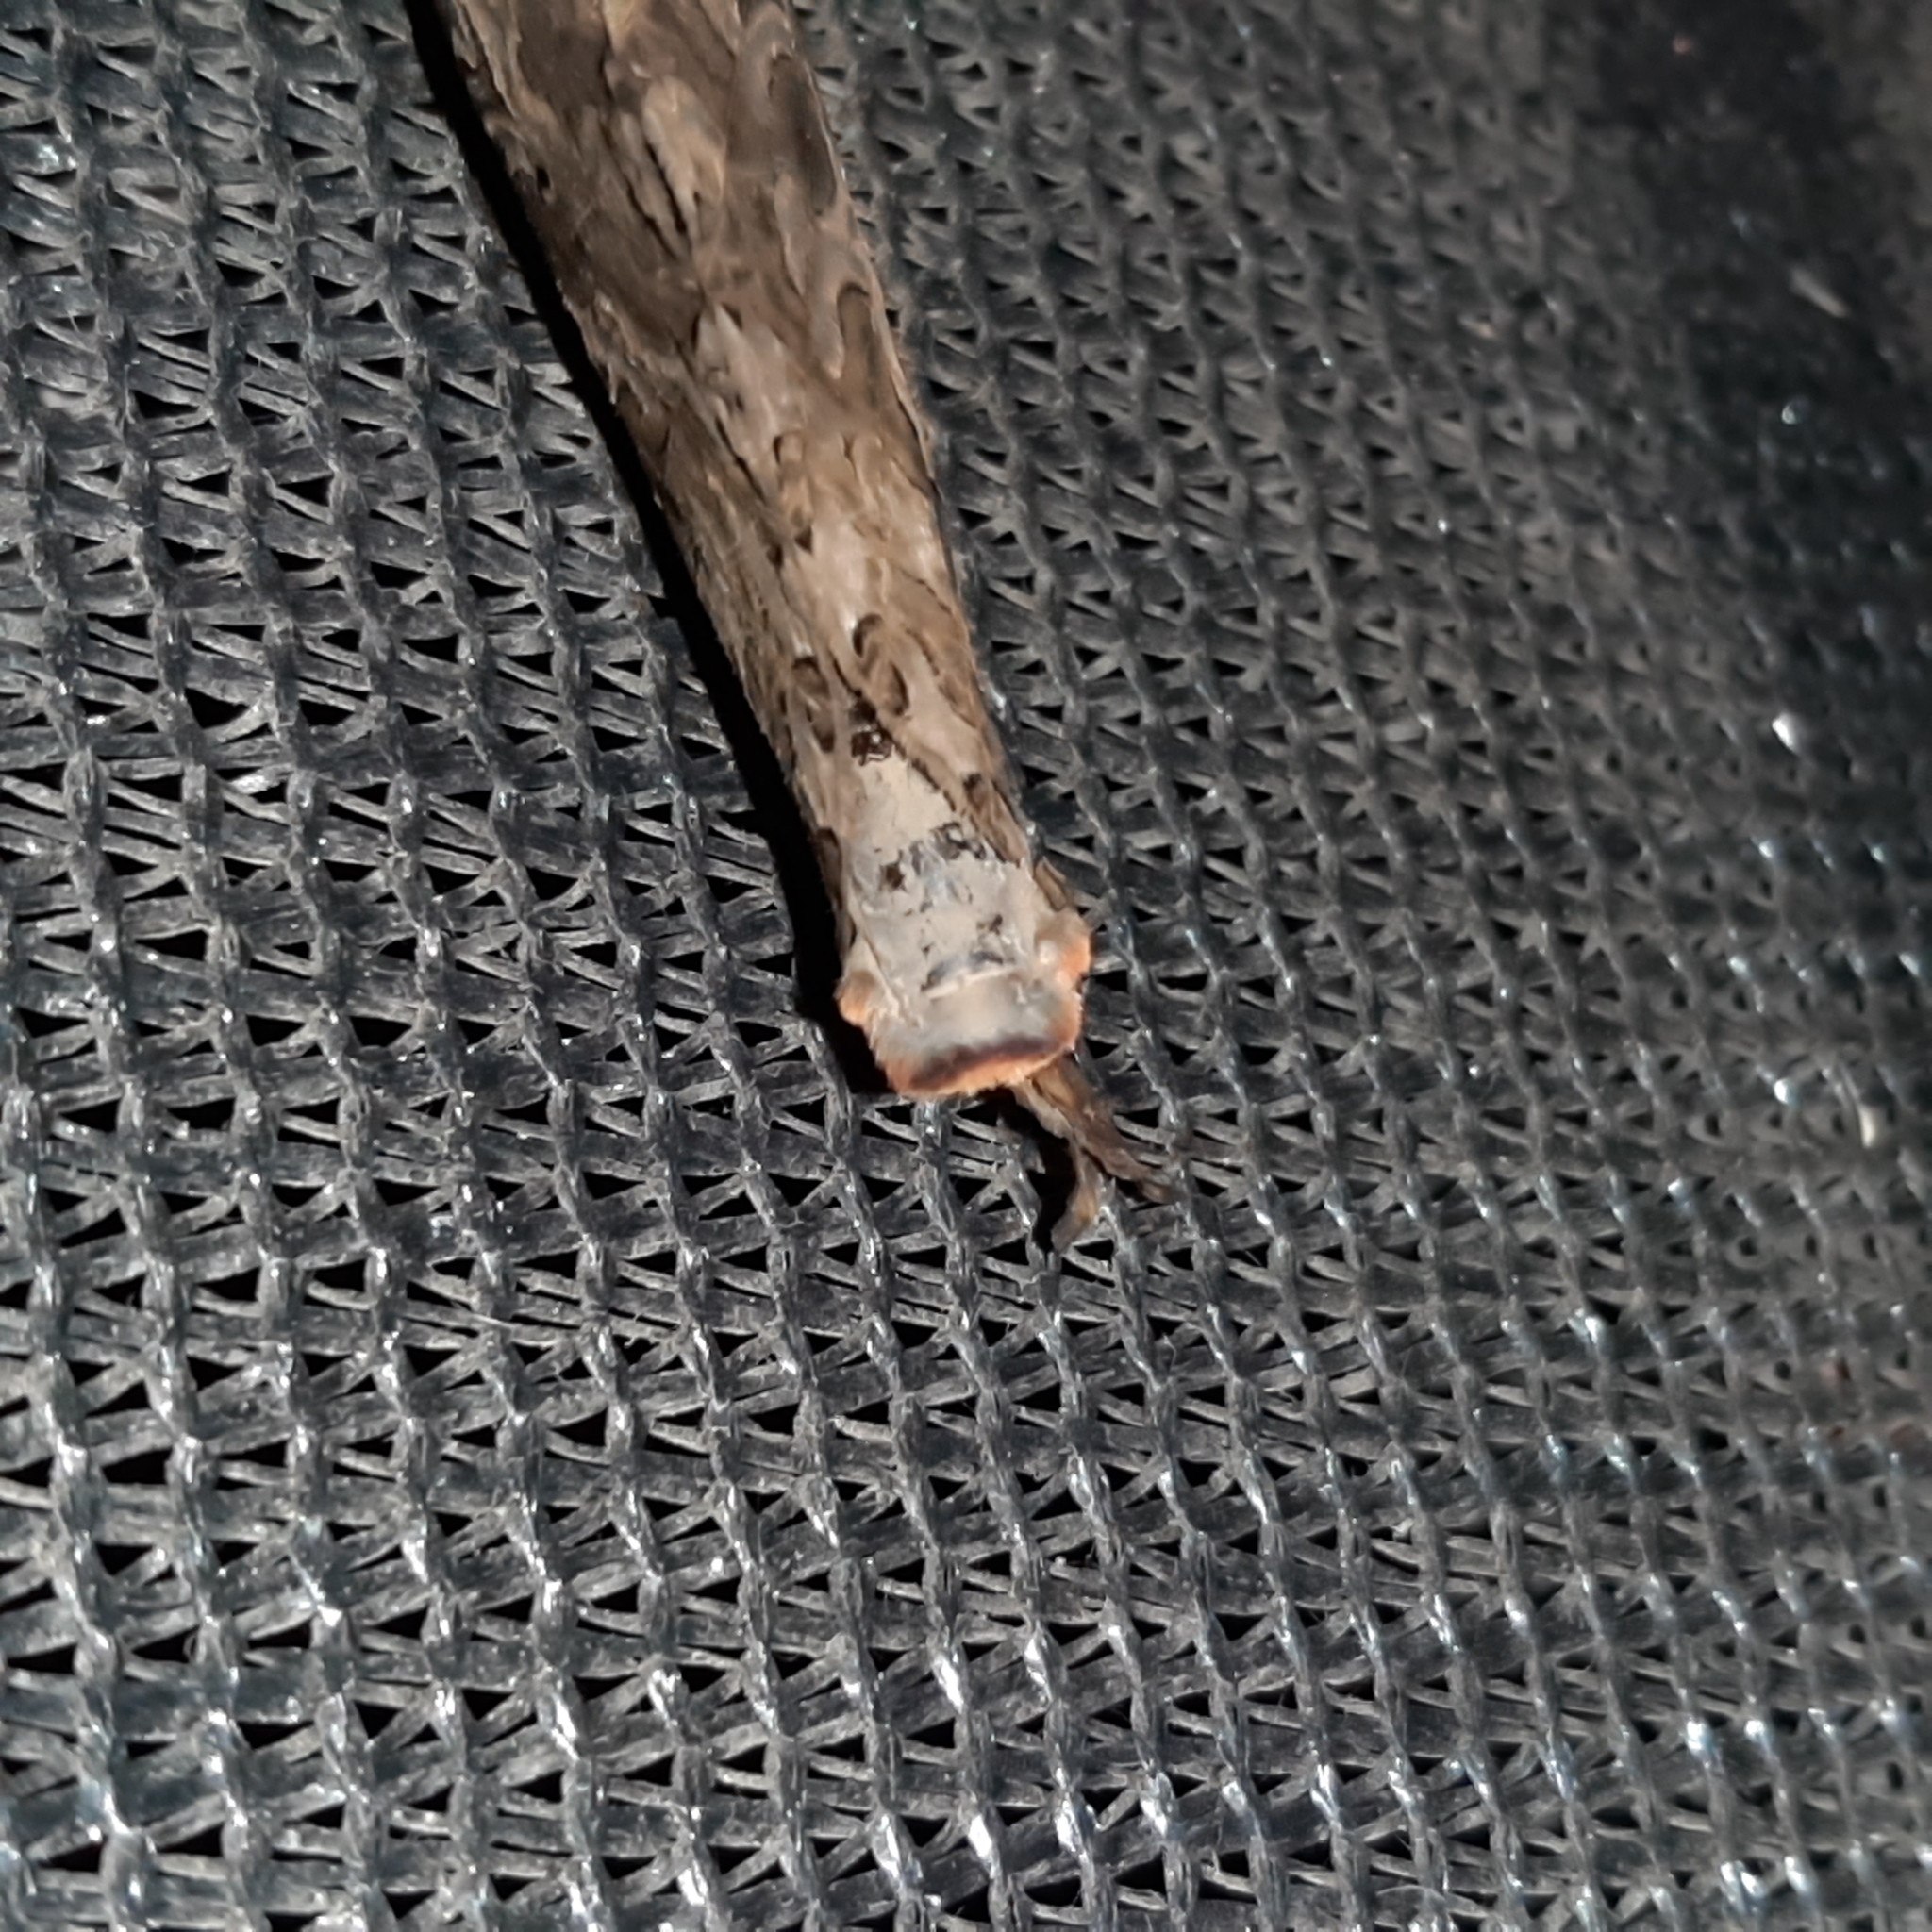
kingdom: Animalia
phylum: Arthropoda
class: Insecta
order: Lepidoptera
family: Hepialidae
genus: Phassus
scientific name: Phassus n-signatus
